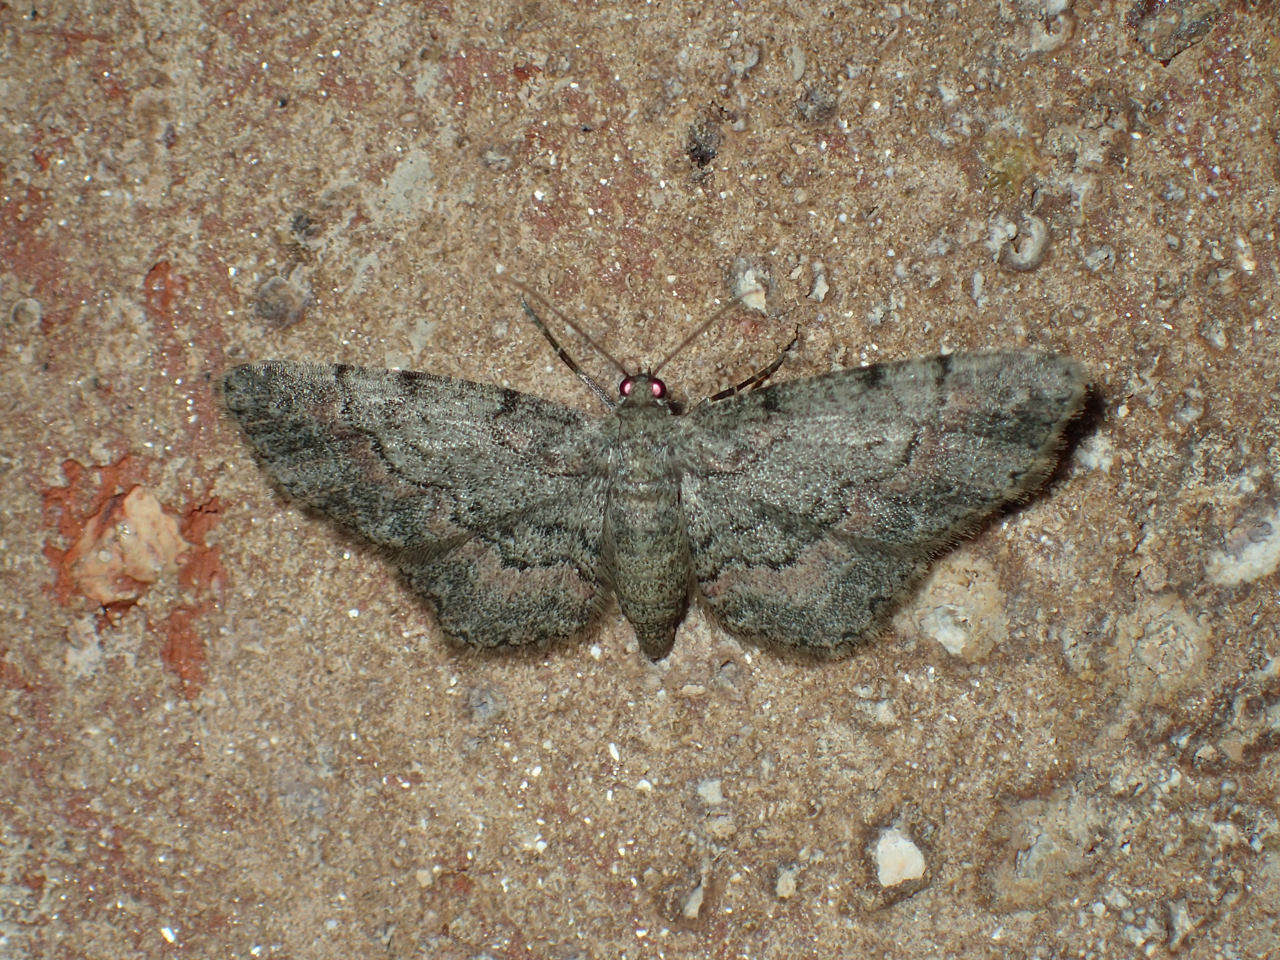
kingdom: Animalia
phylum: Arthropoda
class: Insecta
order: Lepidoptera
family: Geometridae
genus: Glenoides
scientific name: Glenoides texanaria
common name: Texas gray
